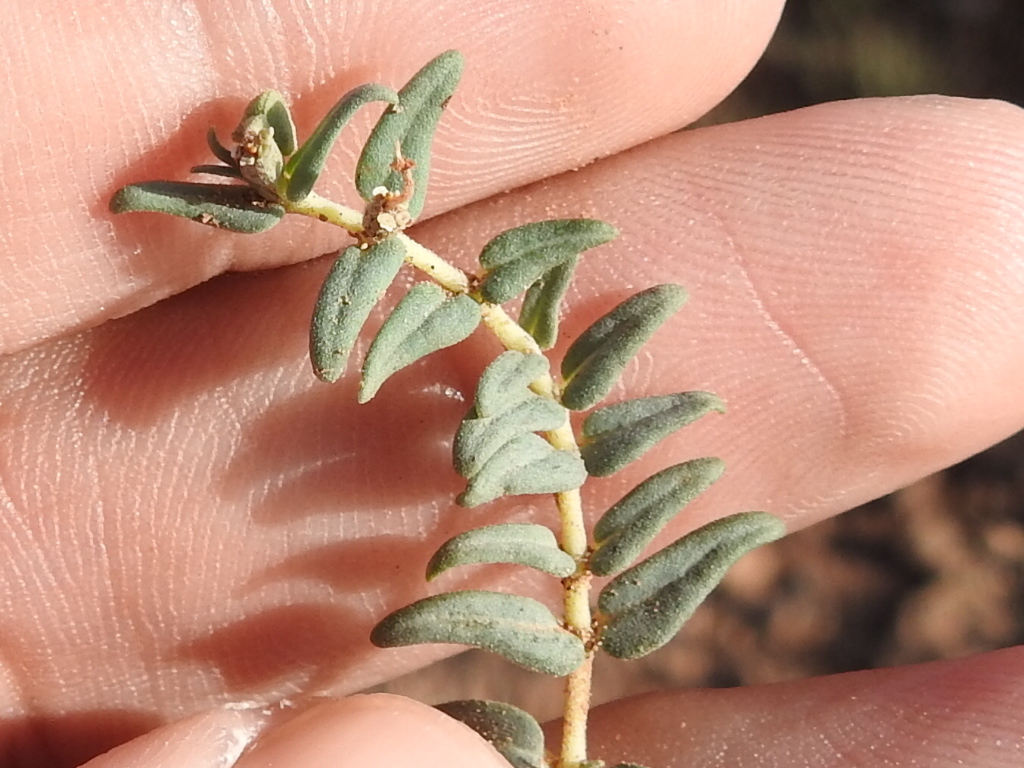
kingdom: Plantae
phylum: Tracheophyta
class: Magnoliopsida
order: Malpighiales
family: Euphorbiaceae
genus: Euphorbia
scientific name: Euphorbia lata
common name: Hoary euphorbia
